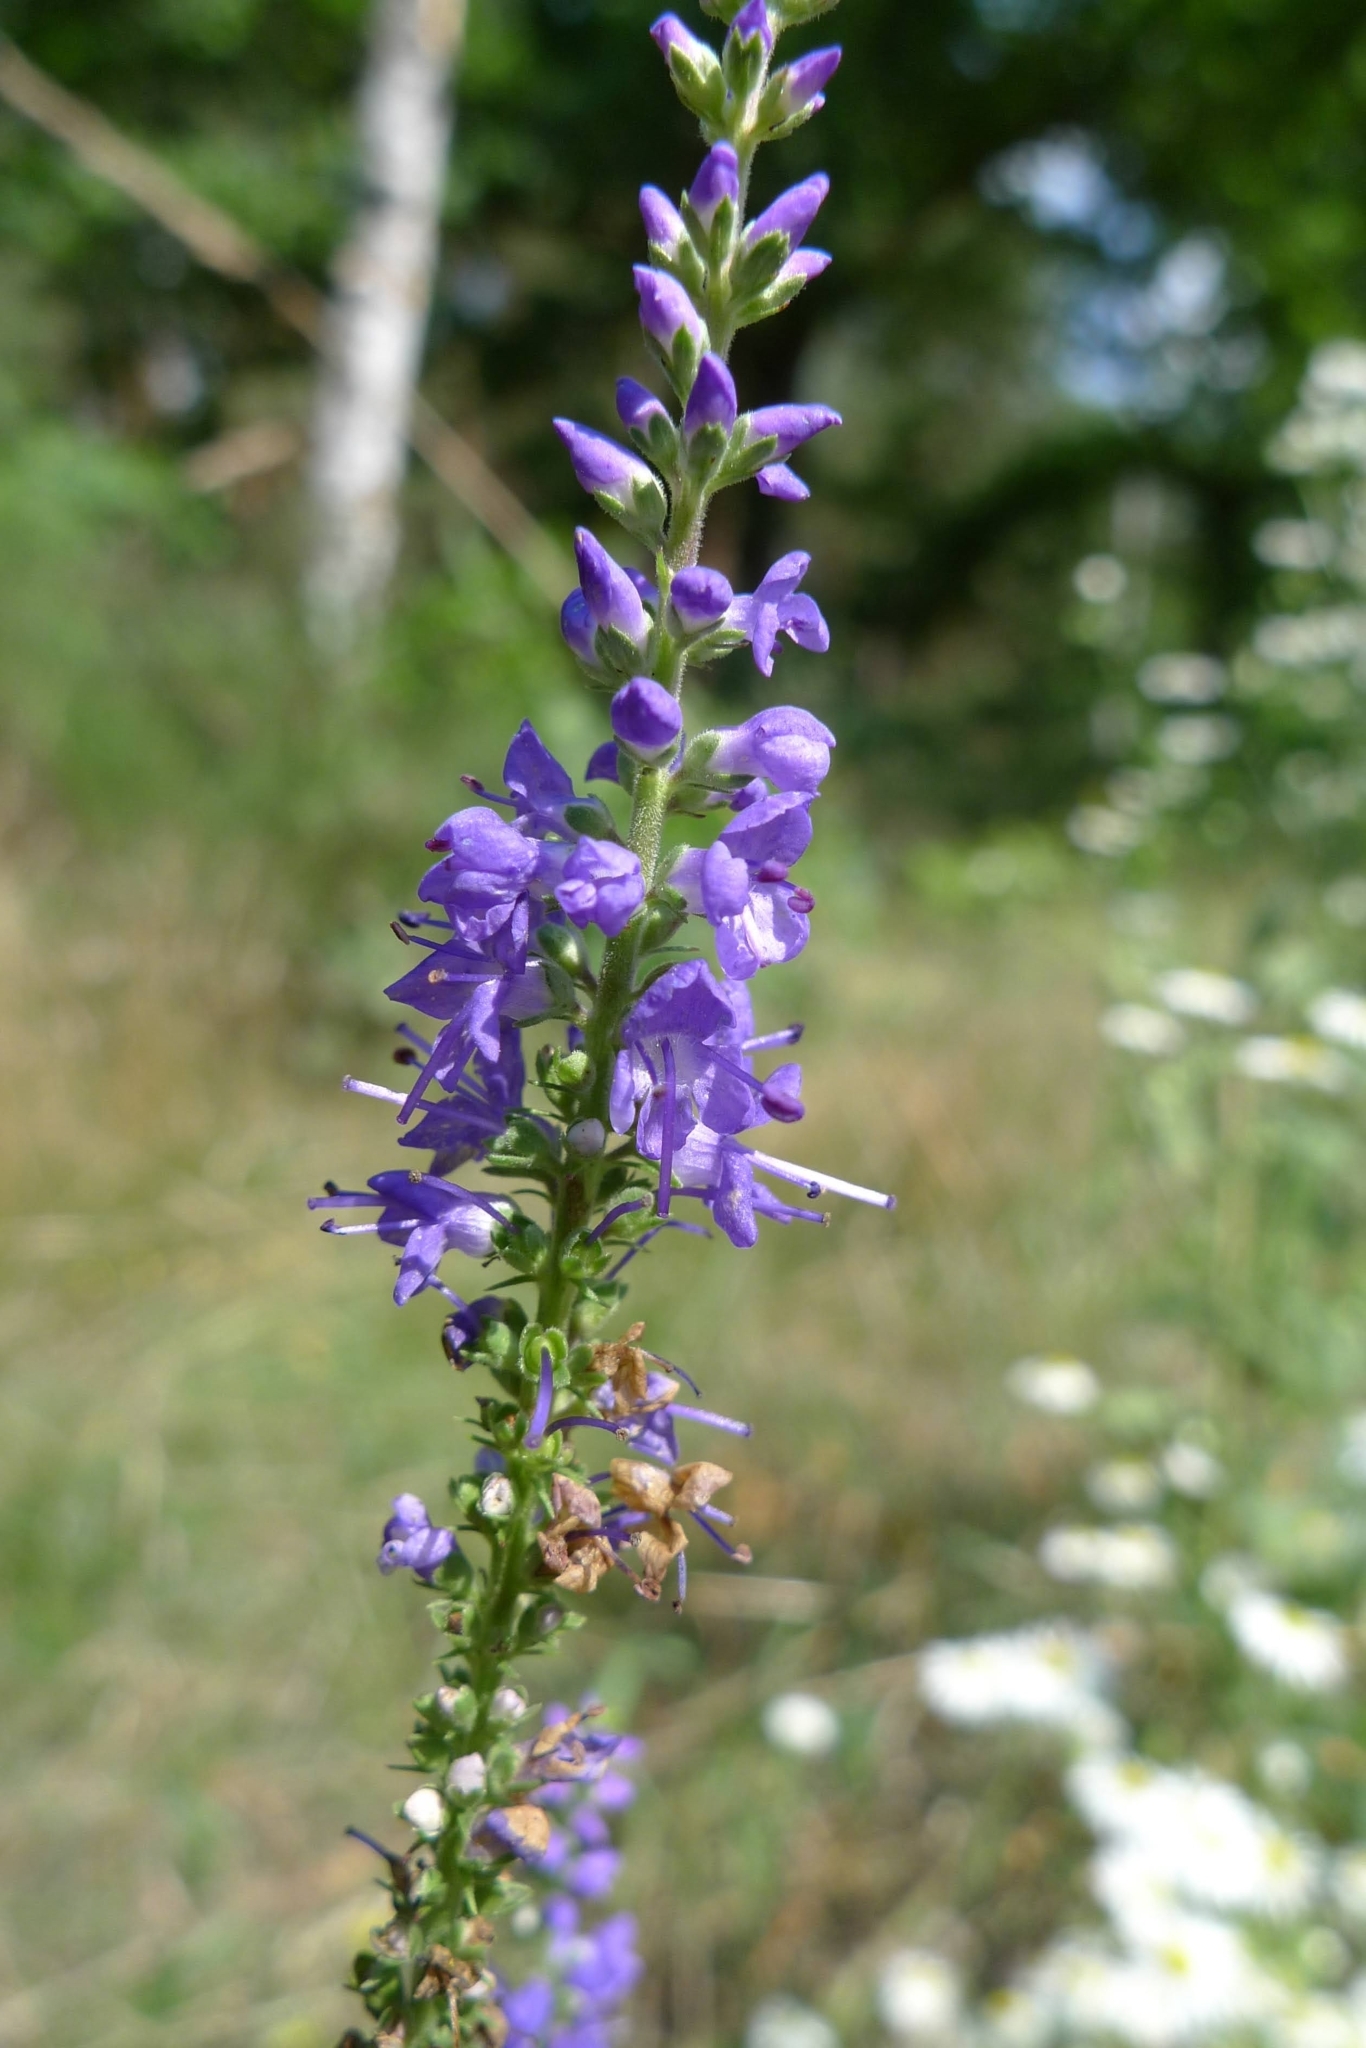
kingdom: Plantae
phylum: Tracheophyta
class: Magnoliopsida
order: Lamiales
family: Plantaginaceae
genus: Veronica
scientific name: Veronica longifolia
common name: Garden speedwell
